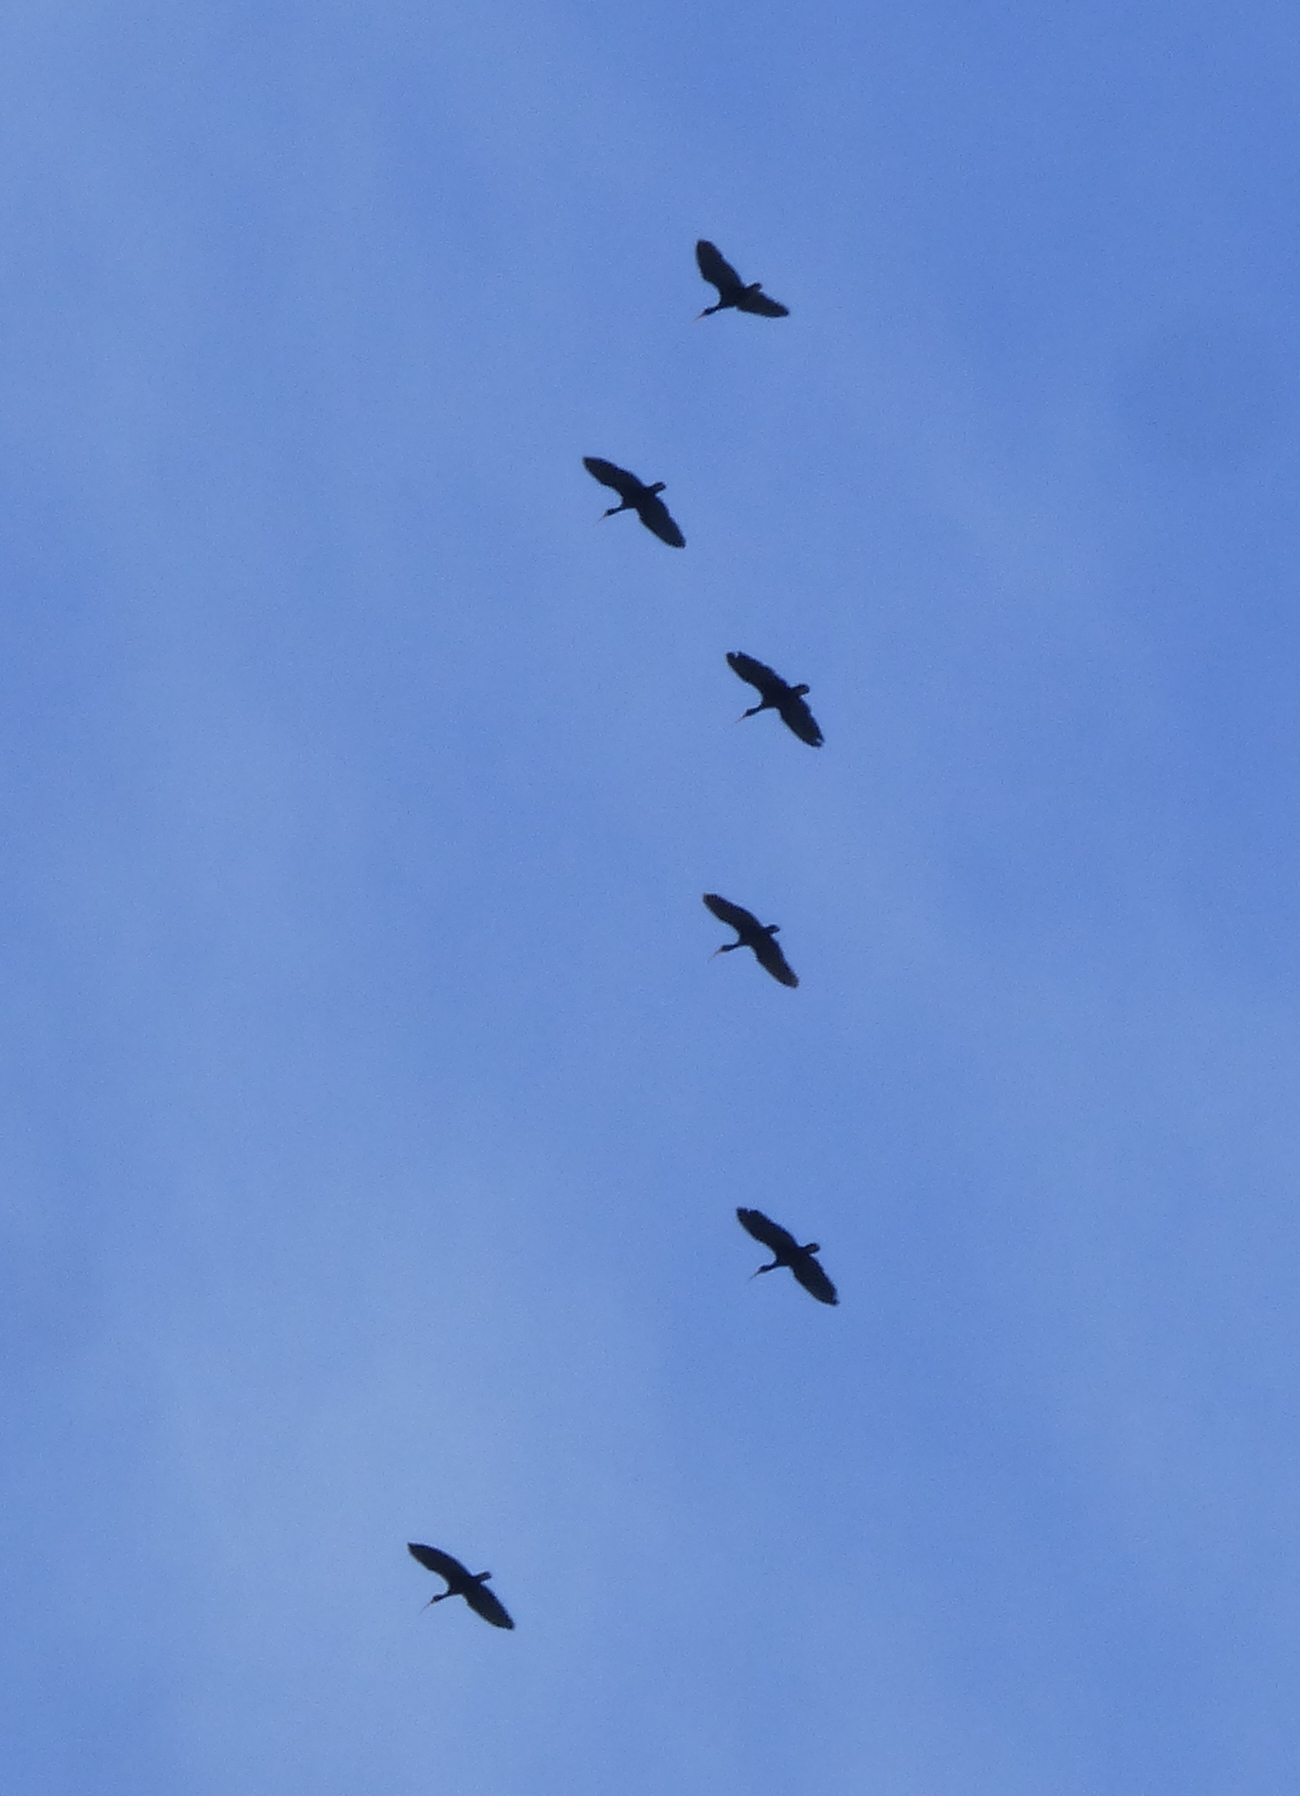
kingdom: Animalia
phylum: Chordata
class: Aves
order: Pelecaniformes
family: Threskiornithidae
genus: Phimosus
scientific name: Phimosus infuscatus
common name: Bare-faced ibis
